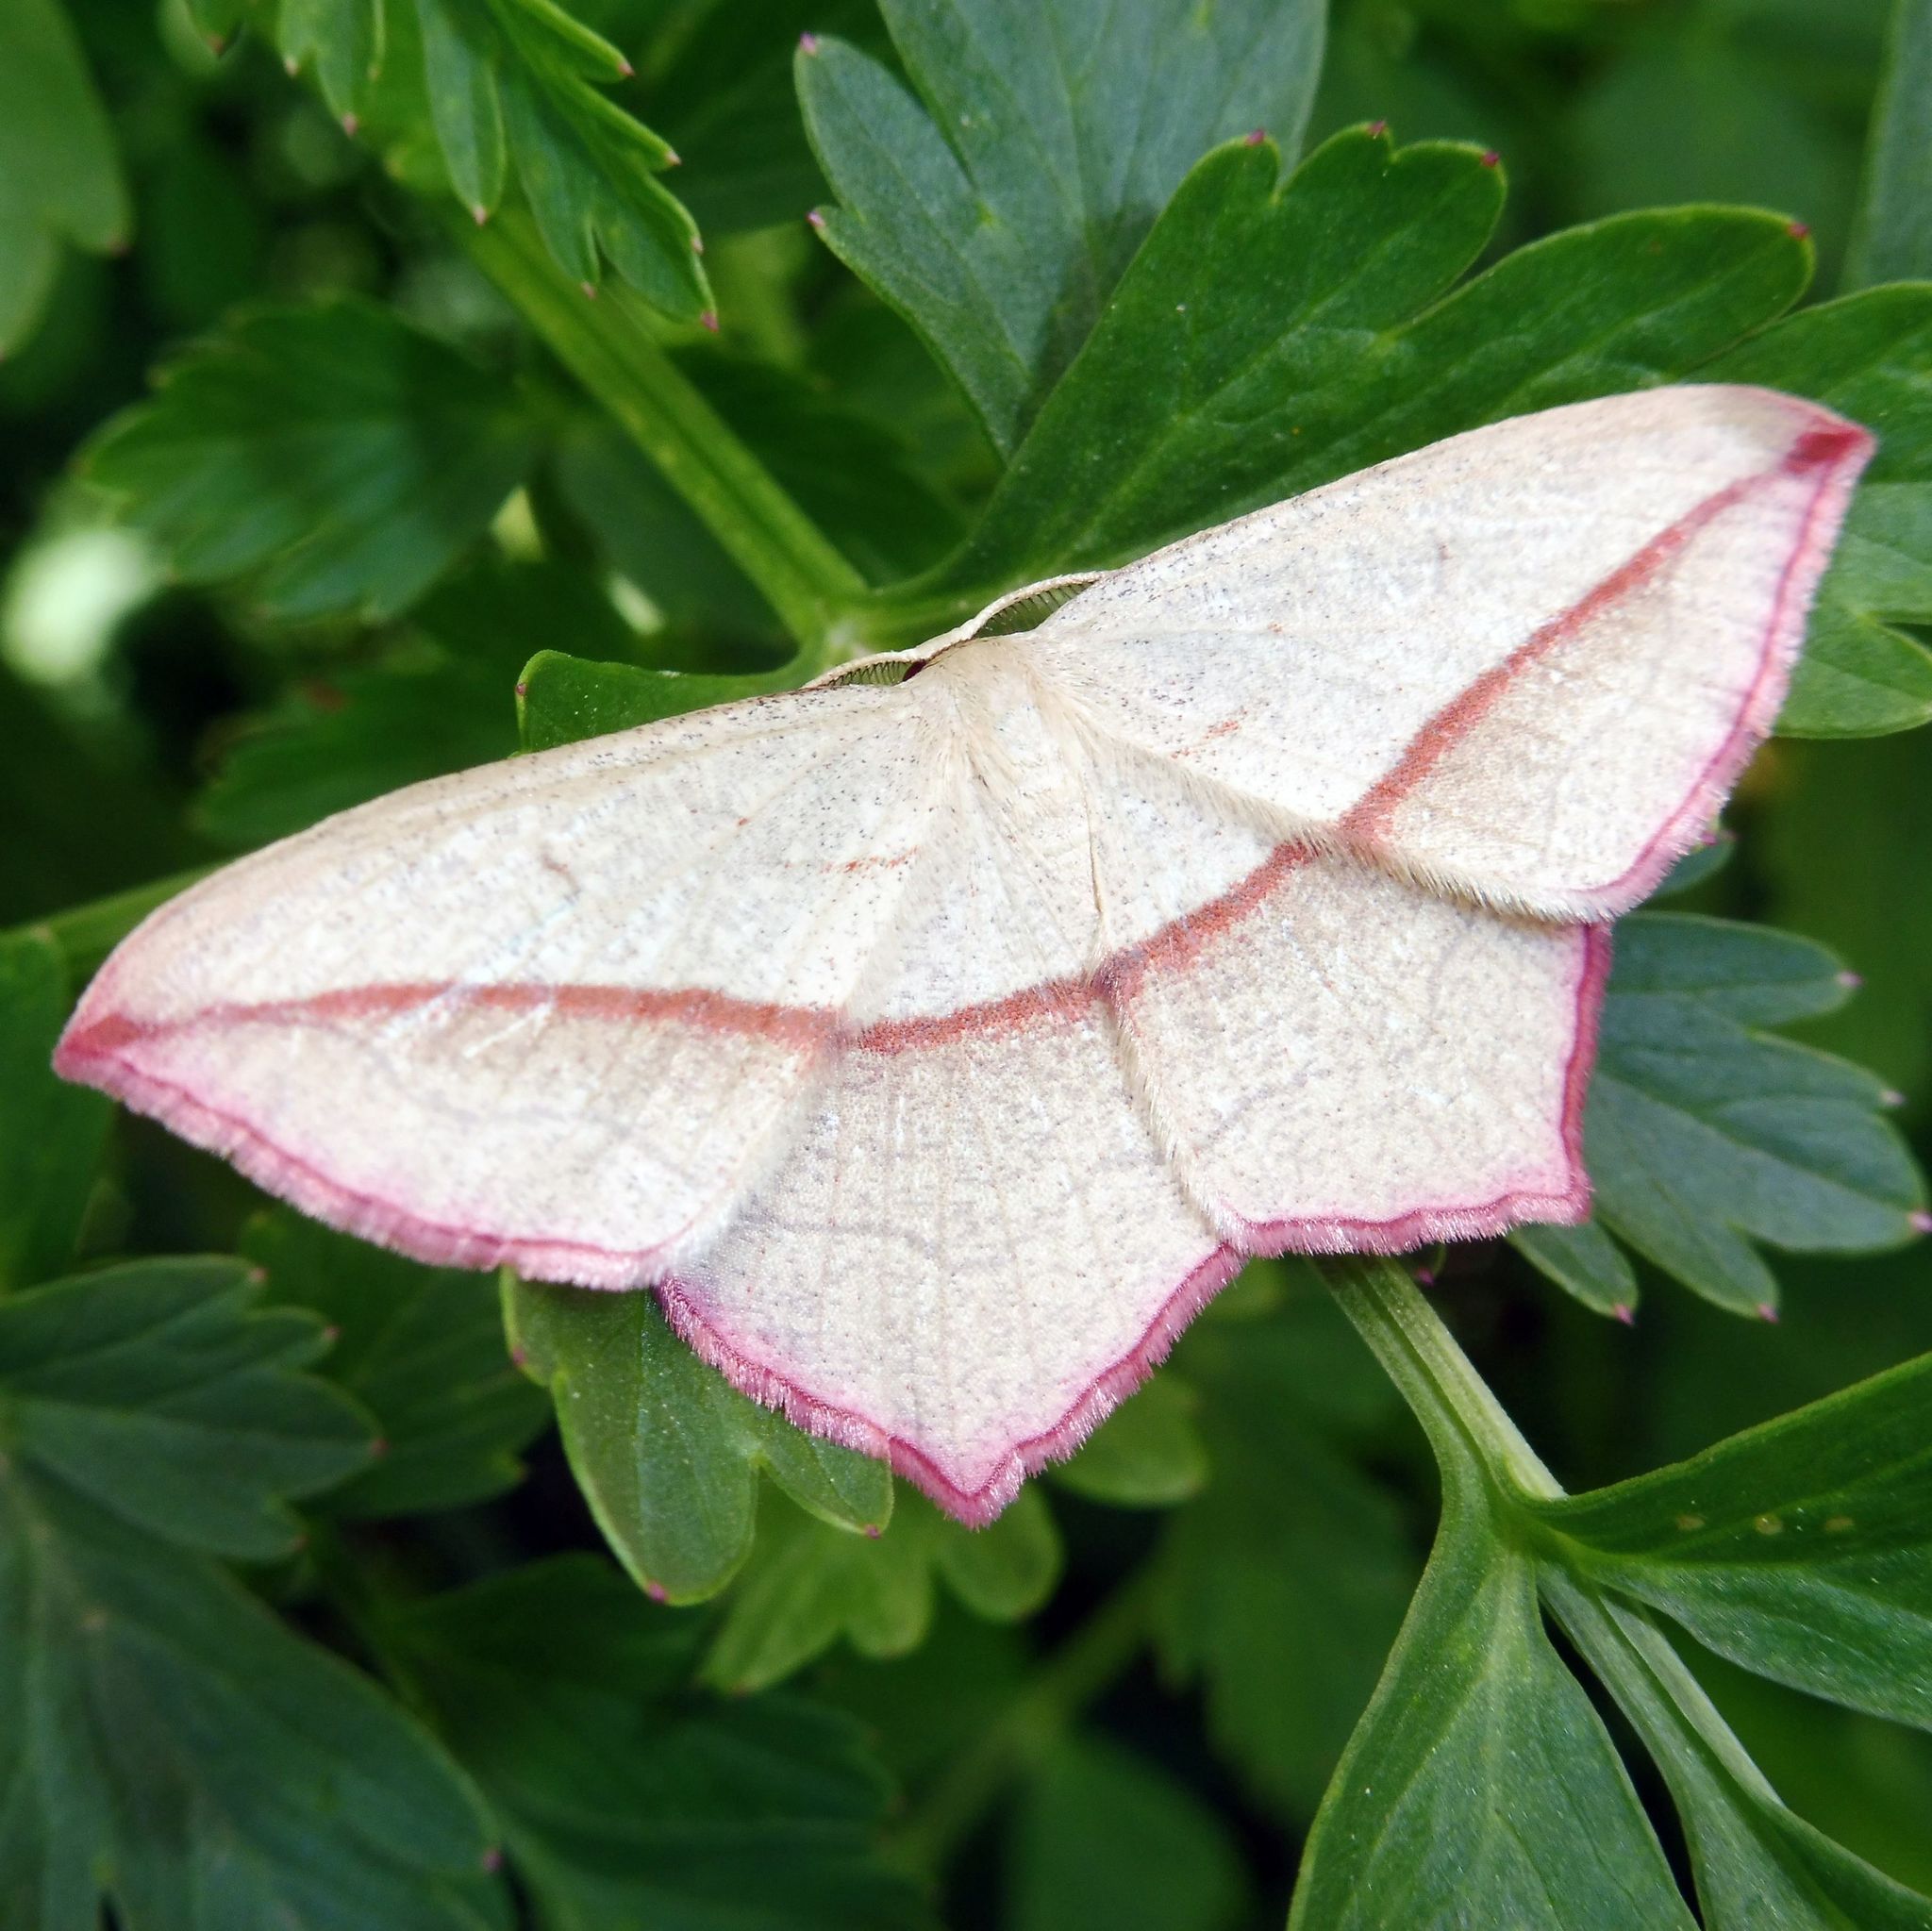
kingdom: Animalia
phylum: Arthropoda
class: Insecta
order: Lepidoptera
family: Geometridae
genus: Timandra
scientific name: Timandra comae
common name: Blood-vein
